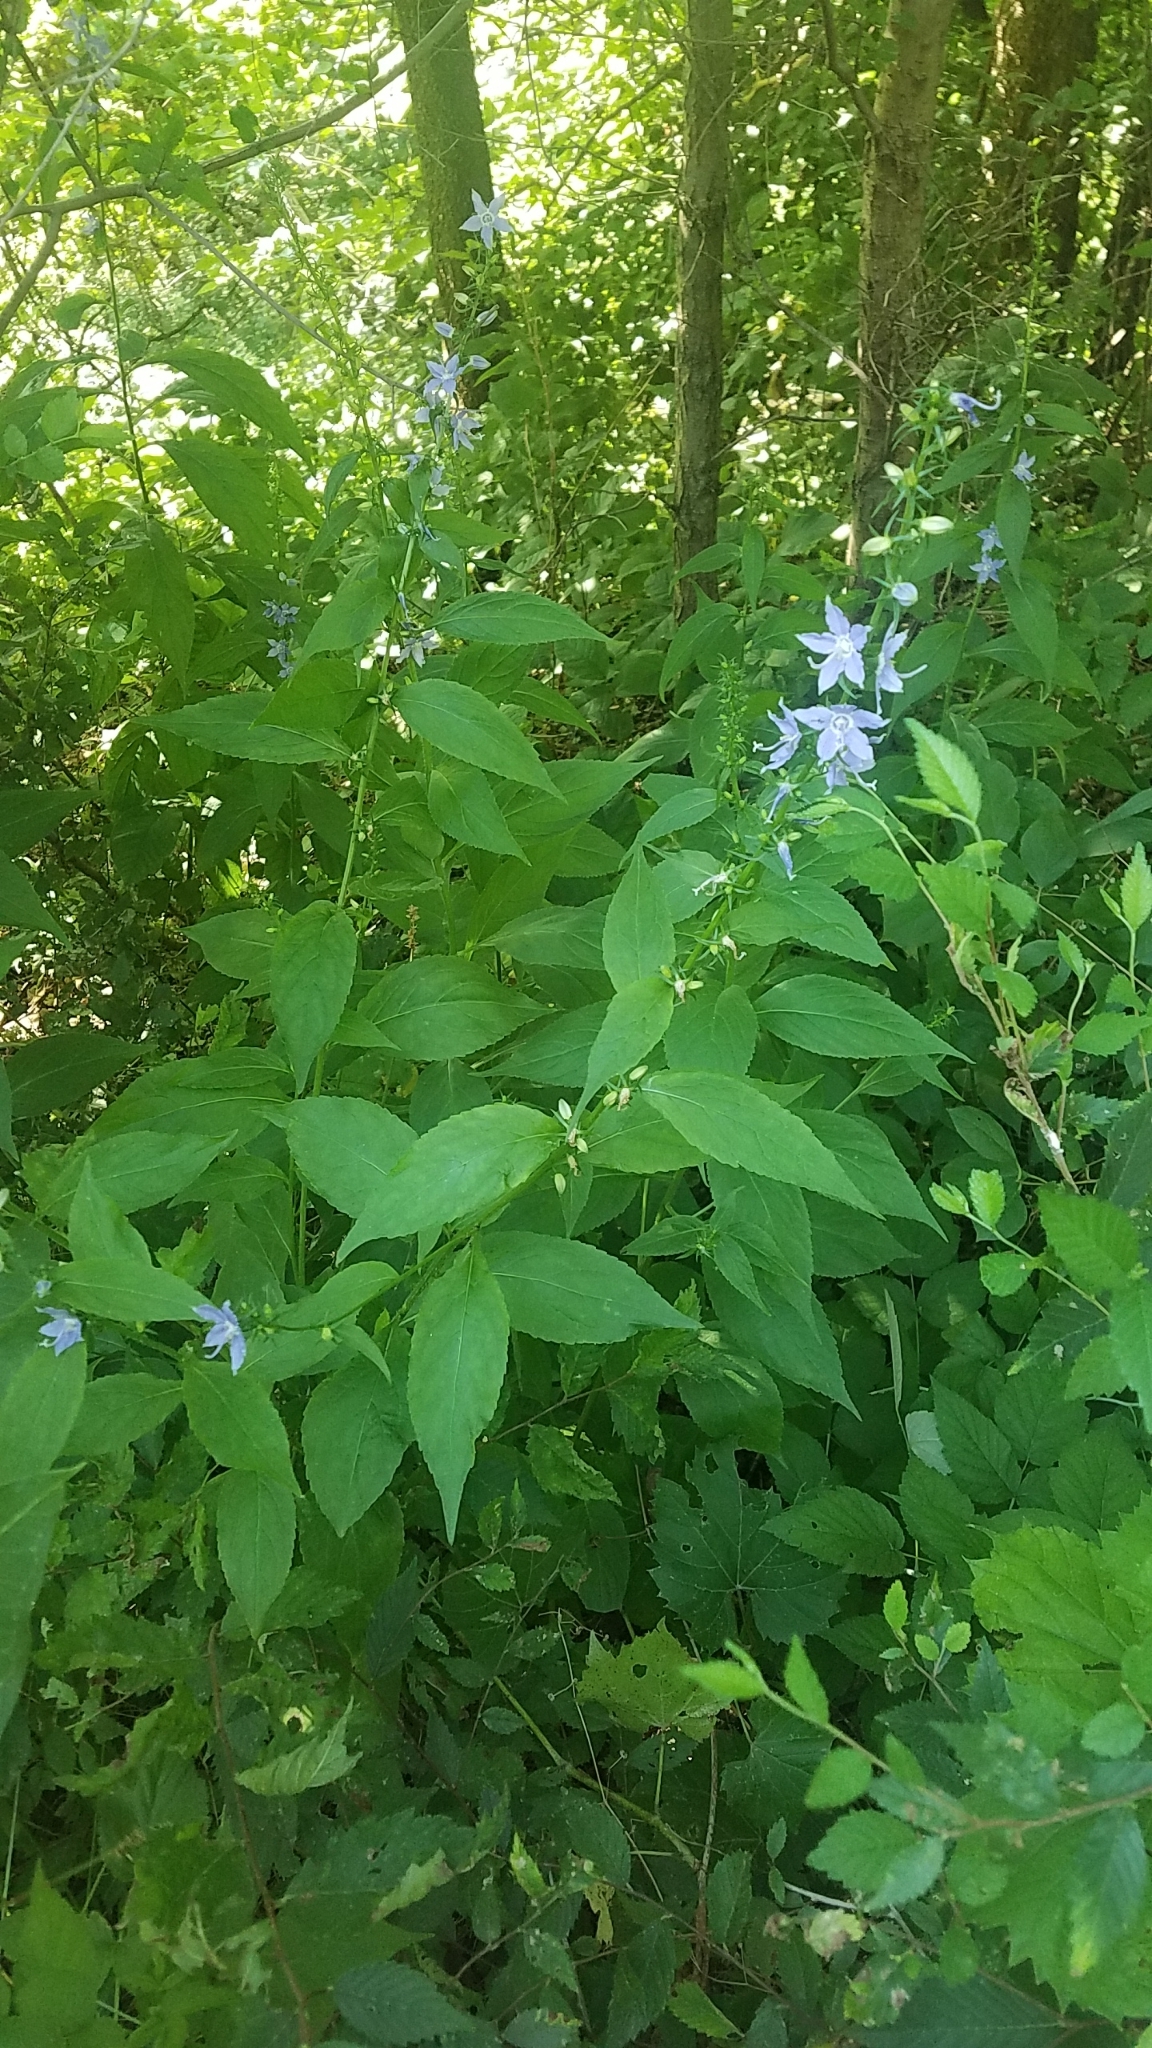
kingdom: Plantae
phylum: Tracheophyta
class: Magnoliopsida
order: Asterales
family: Campanulaceae
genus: Campanulastrum
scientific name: Campanulastrum americanum
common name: American bellflower
